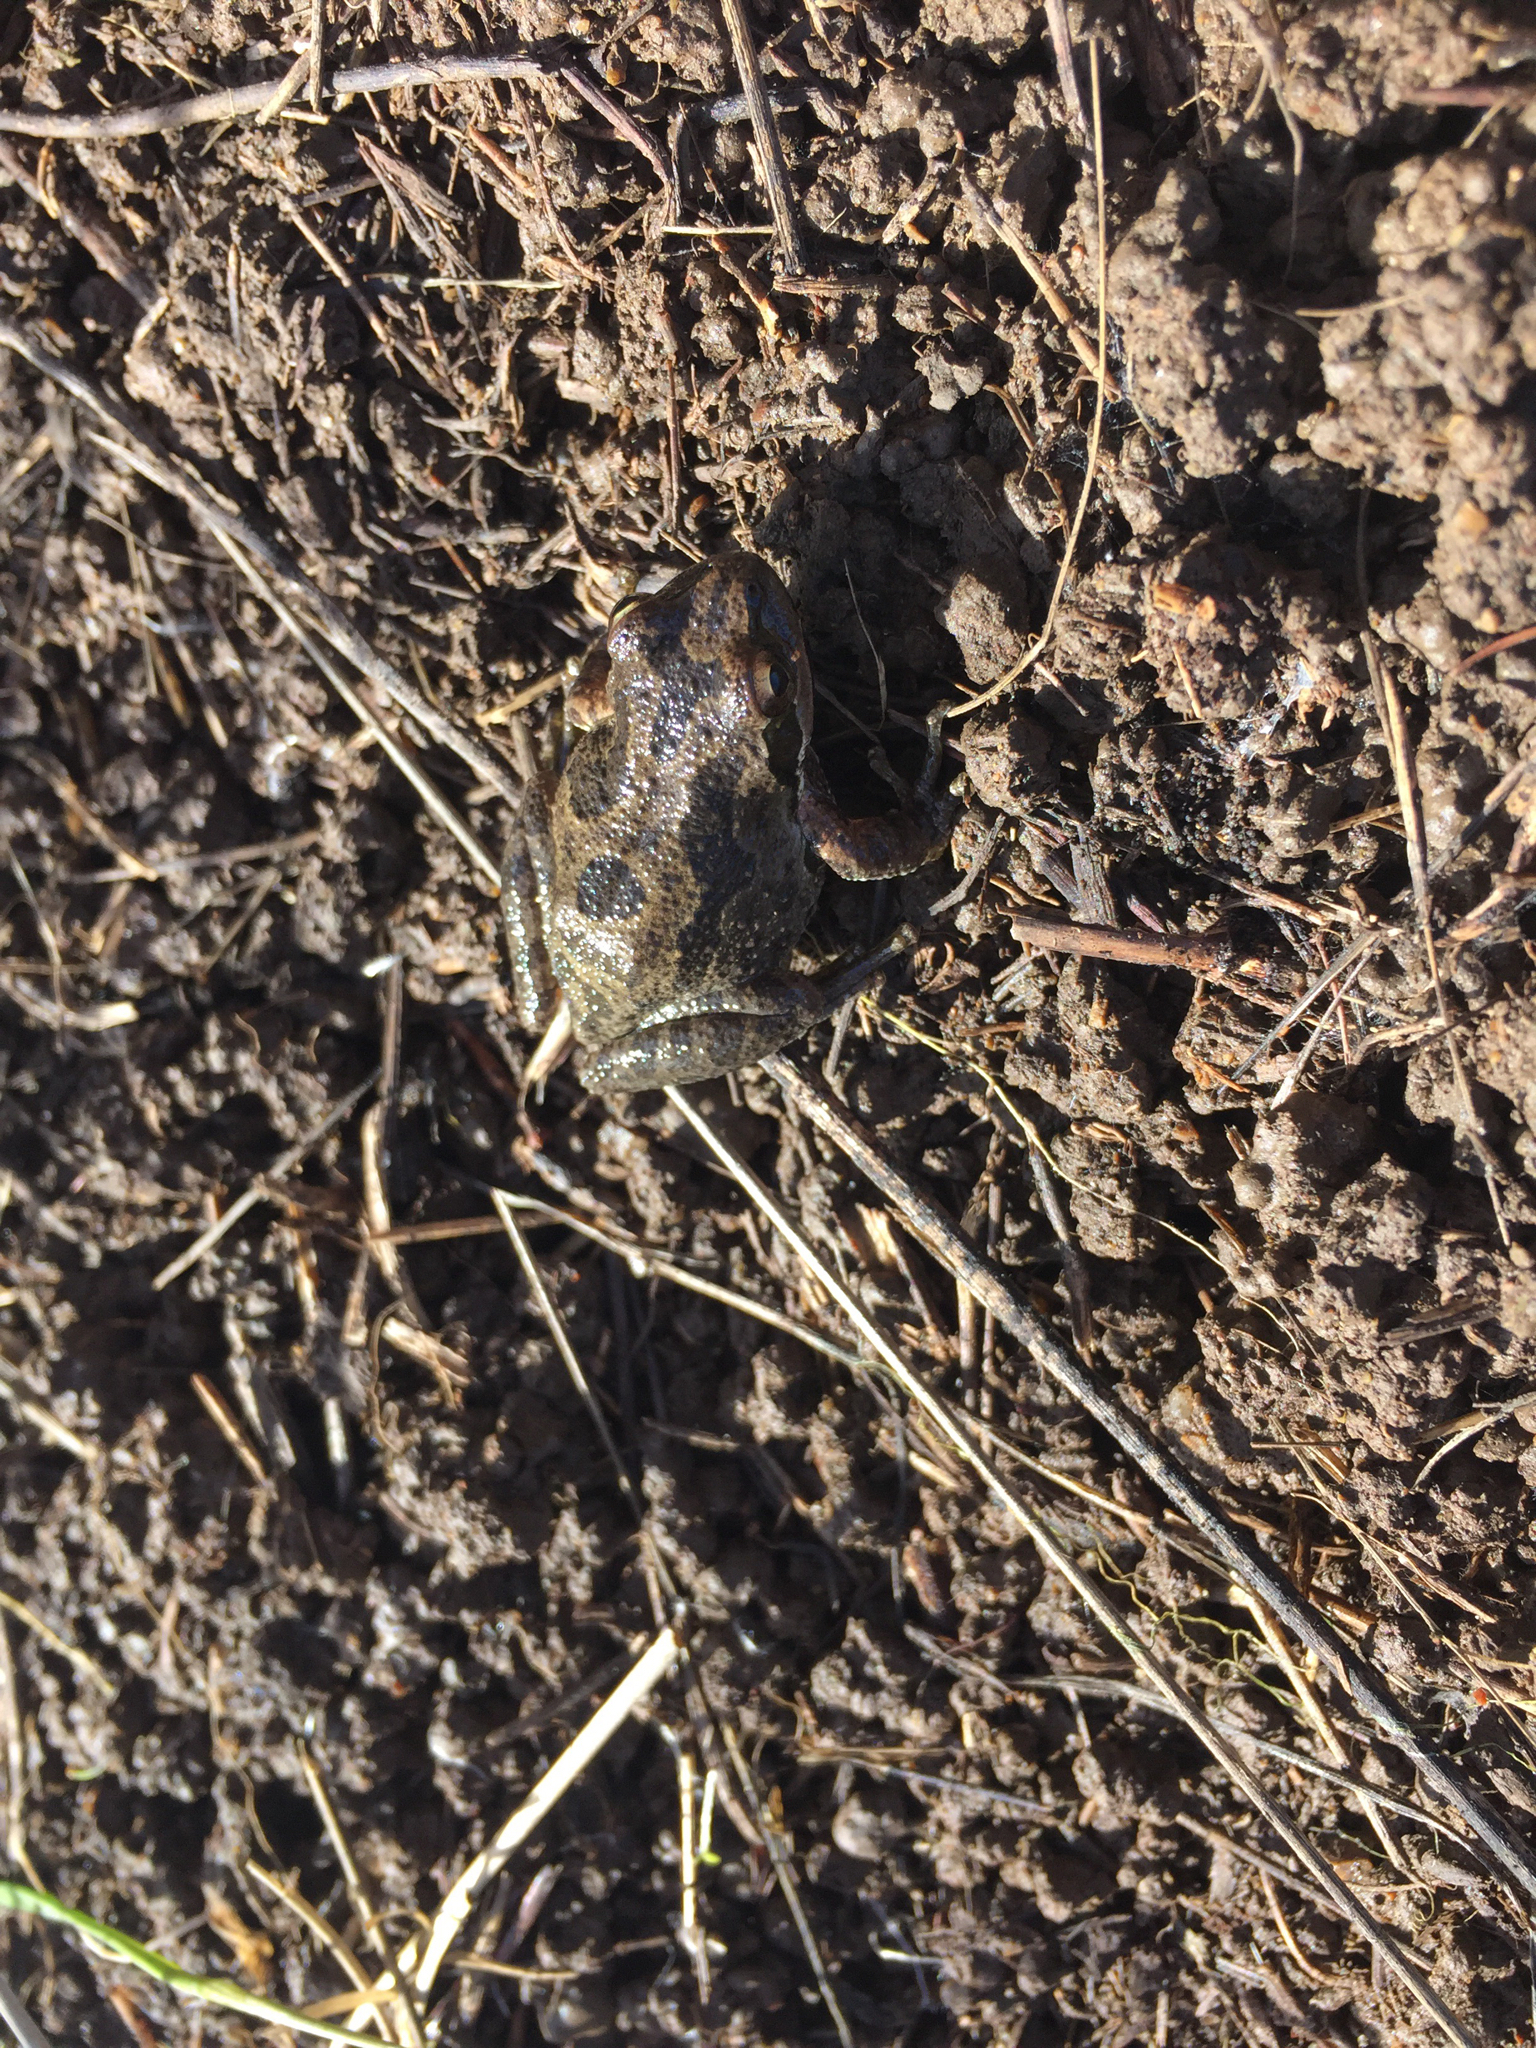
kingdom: Animalia
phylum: Chordata
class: Amphibia
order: Anura
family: Hylidae
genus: Pseudacris
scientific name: Pseudacris regilla
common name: Pacific chorus frog
